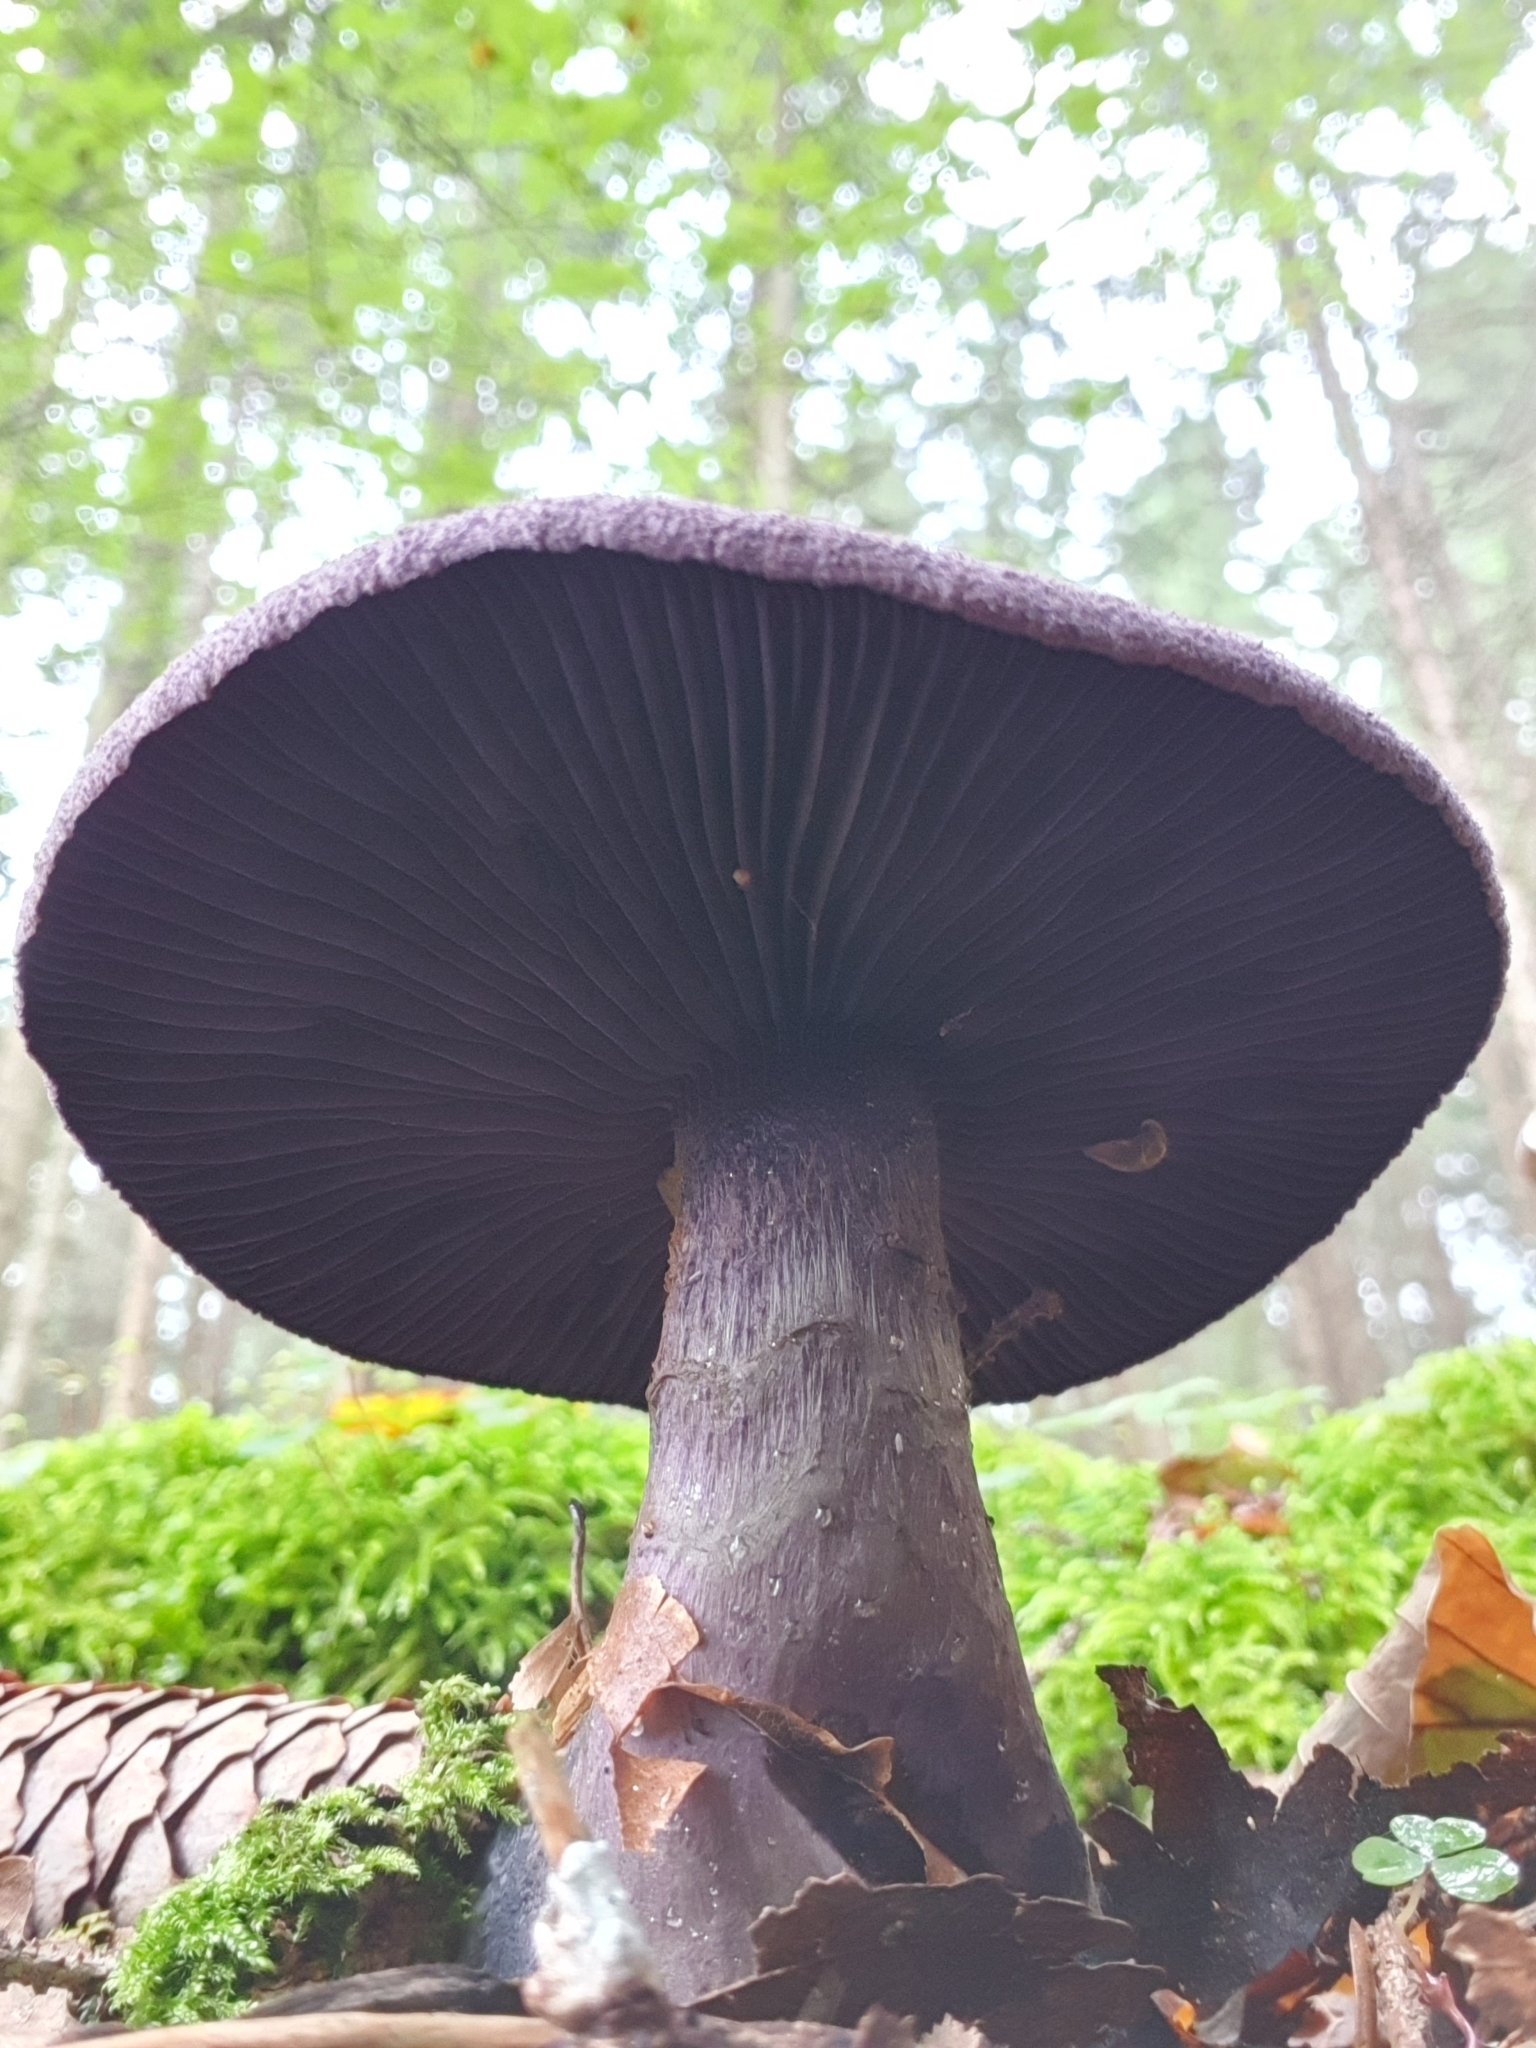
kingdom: Fungi
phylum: Basidiomycota
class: Agaricomycetes
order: Agaricales
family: Cortinariaceae
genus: Cortinarius
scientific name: Cortinarius violaceus
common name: Violet webcap
